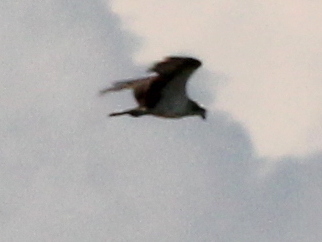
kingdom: Animalia
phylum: Chordata
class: Aves
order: Accipitriformes
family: Pandionidae
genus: Pandion
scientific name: Pandion haliaetus
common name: Osprey
